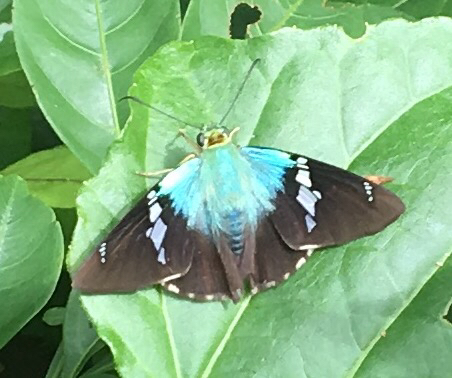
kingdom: Animalia
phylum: Arthropoda
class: Insecta
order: Lepidoptera
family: Hesperiidae
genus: Astraptes
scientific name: Astraptes fulgerator
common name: Two-barred flasher
